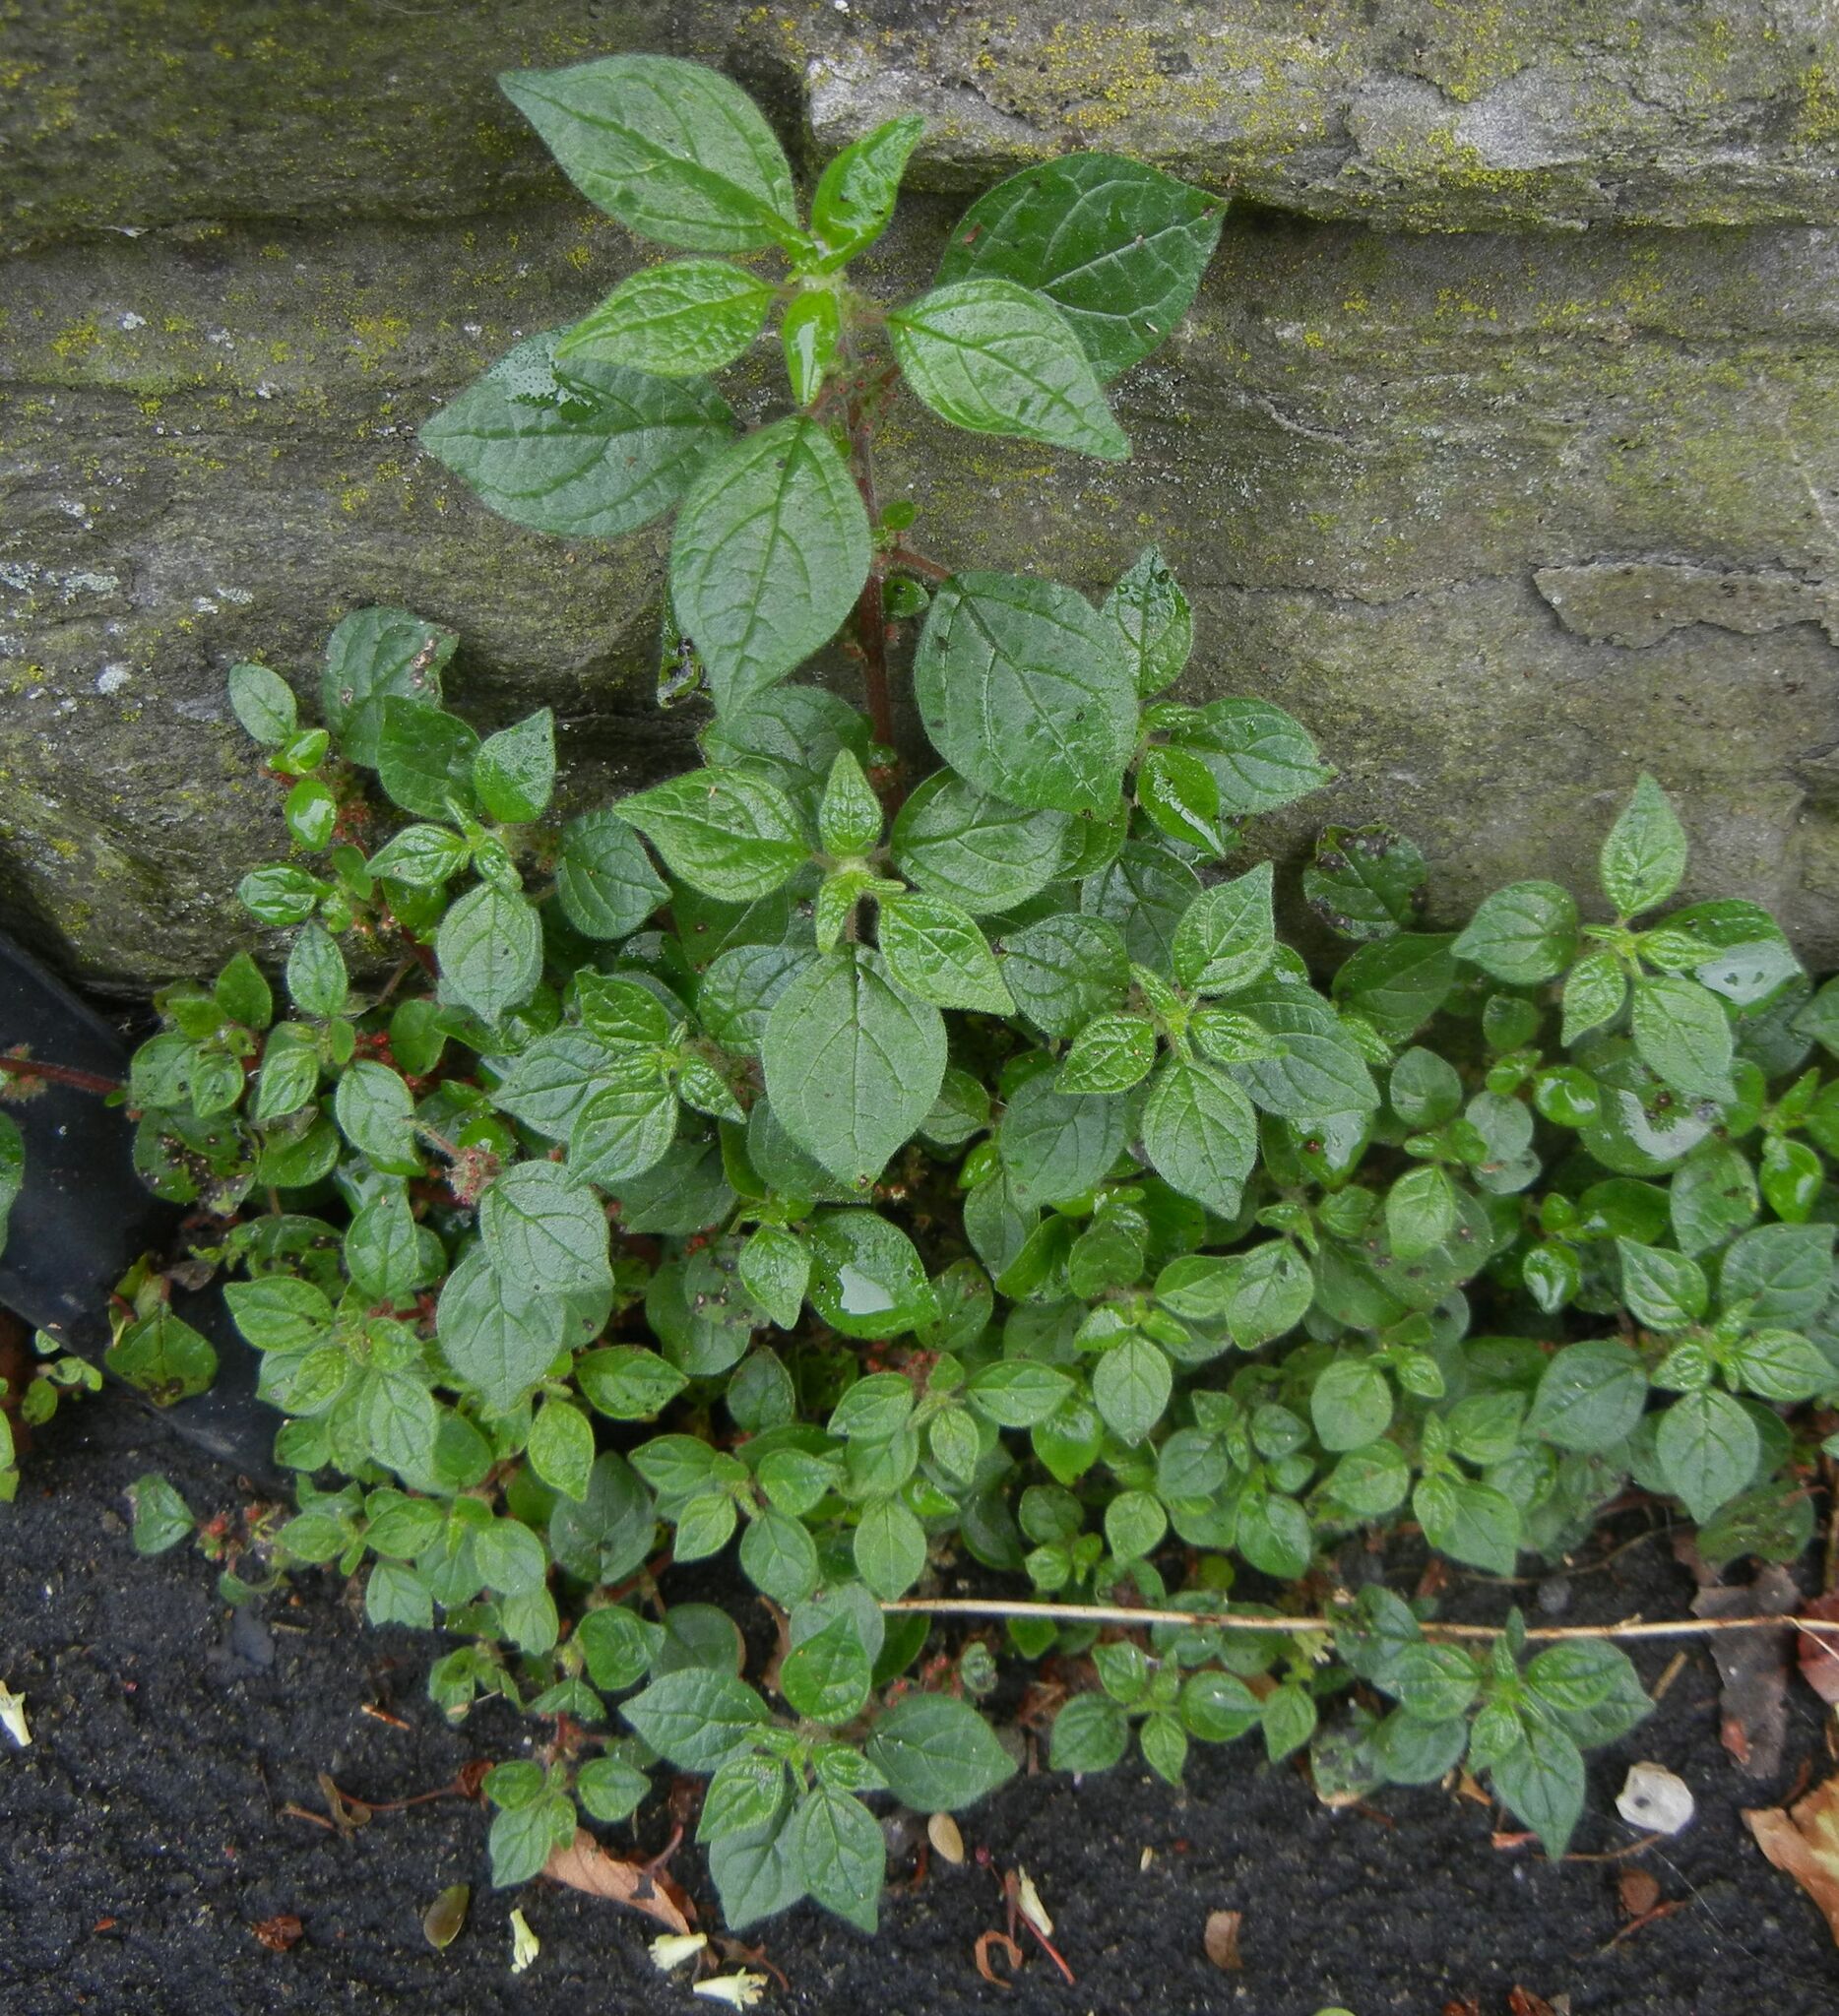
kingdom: Plantae
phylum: Tracheophyta
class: Magnoliopsida
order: Rosales
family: Urticaceae
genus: Parietaria
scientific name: Parietaria judaica
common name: Pellitory-of-the-wall
